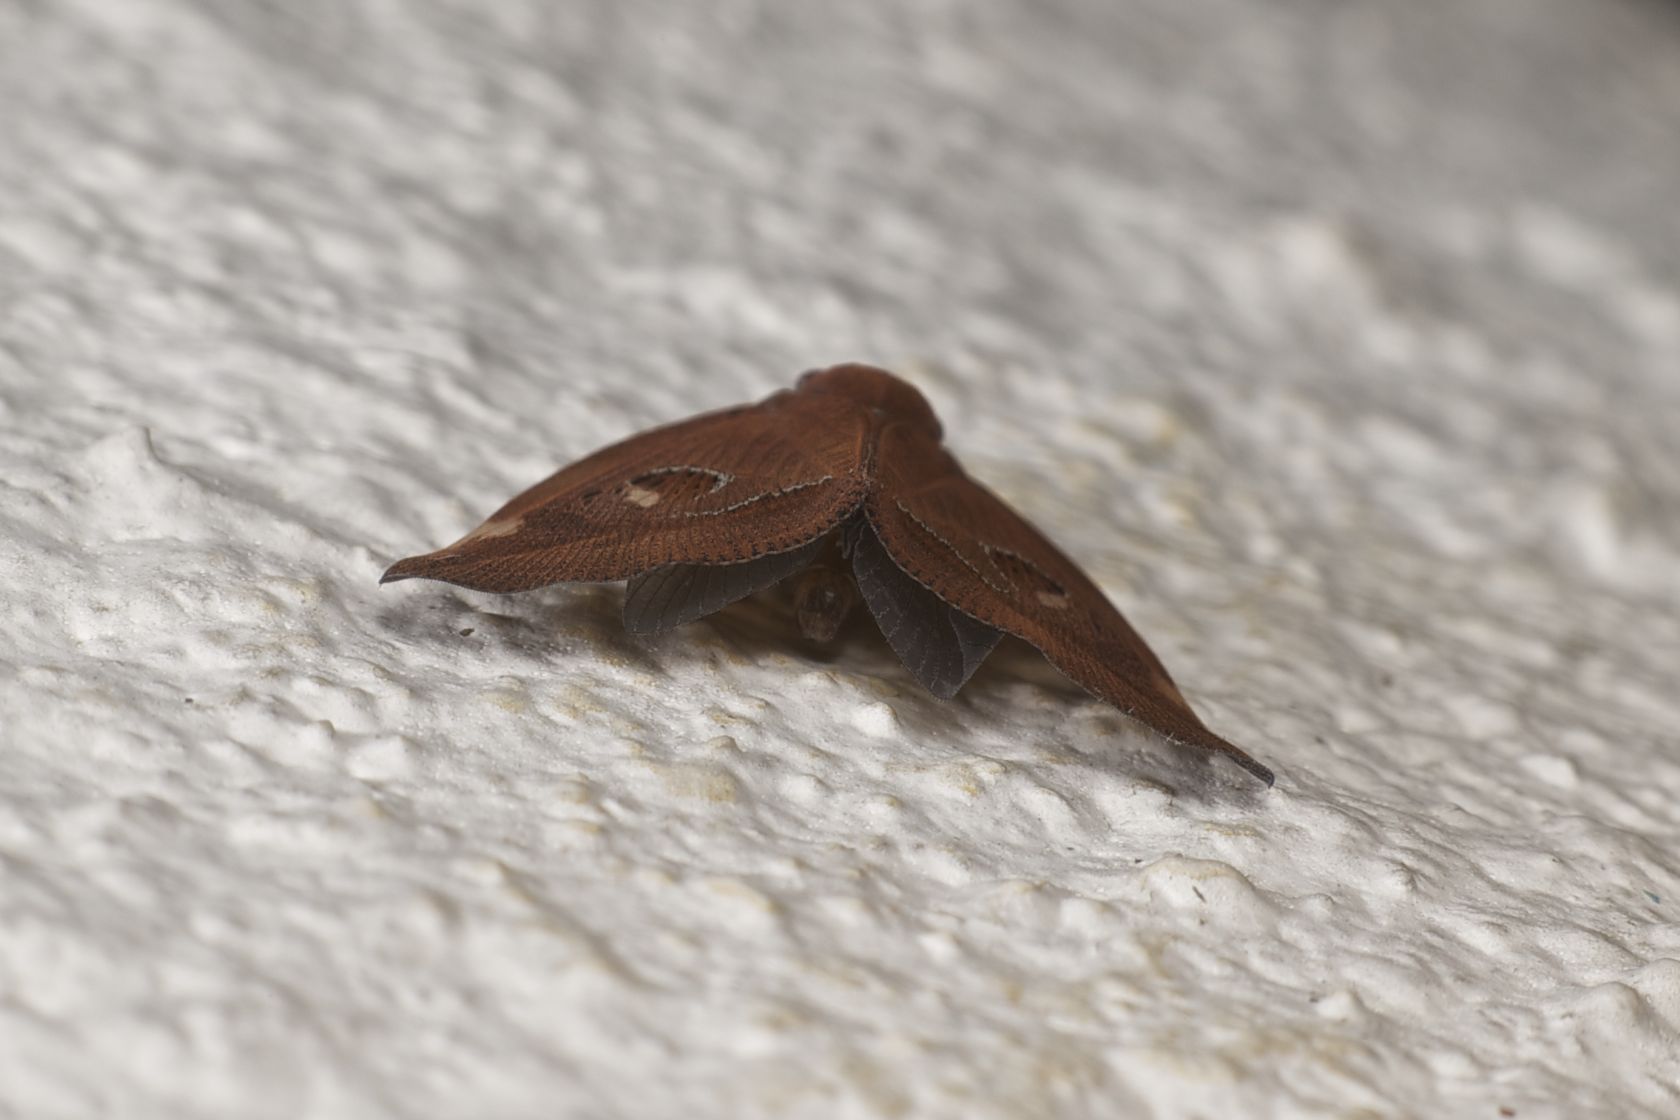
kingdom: Animalia
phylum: Arthropoda
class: Insecta
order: Hemiptera
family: Ricaniidae
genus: Ricania
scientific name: Ricania guttata
